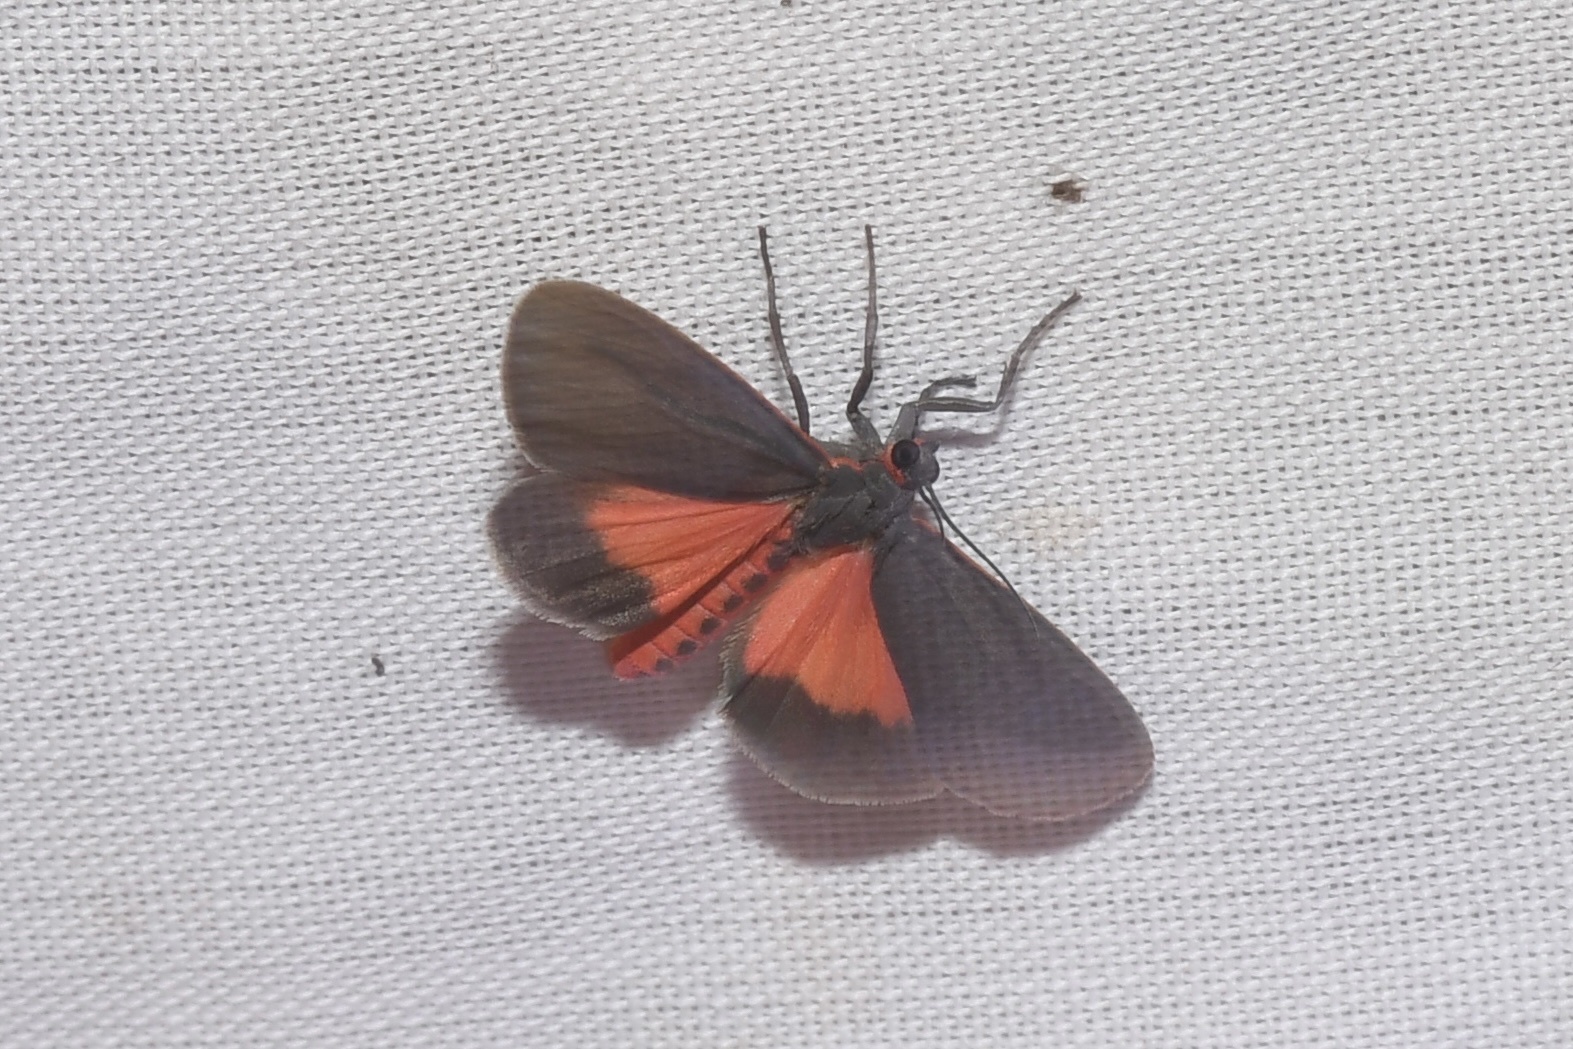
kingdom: Animalia
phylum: Arthropoda
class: Insecta
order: Lepidoptera
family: Erebidae
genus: Virbia
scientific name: Virbia laeta
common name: Joyful holomelina moth
